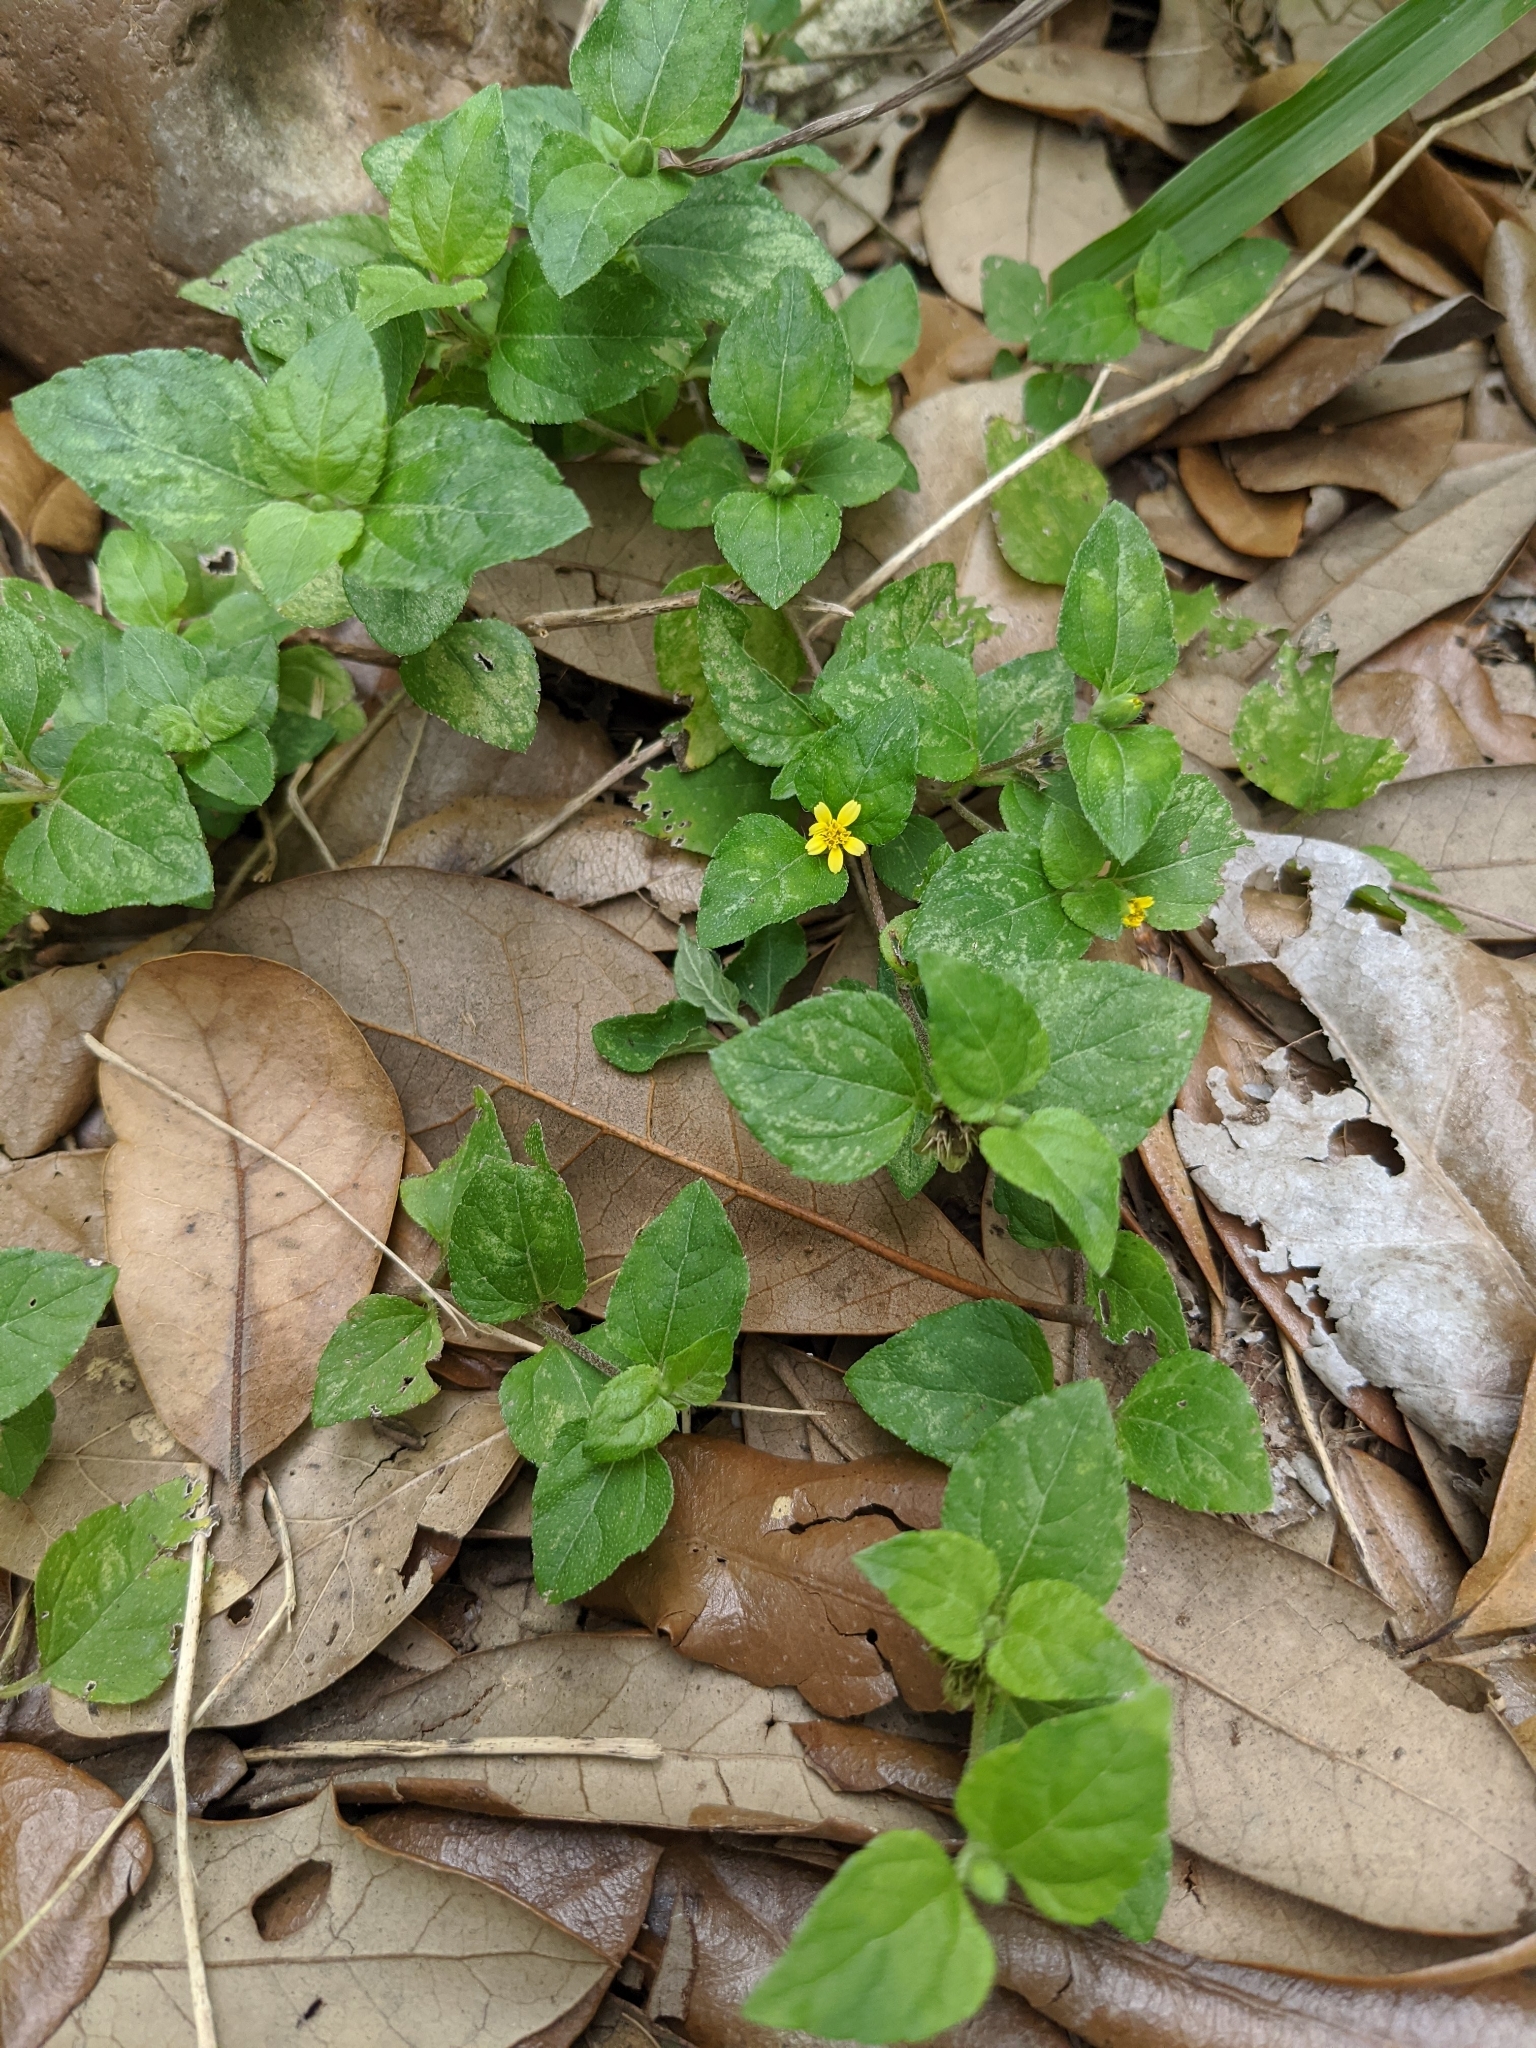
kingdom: Plantae
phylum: Tracheophyta
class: Magnoliopsida
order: Asterales
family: Asteraceae
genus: Calyptocarpus
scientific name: Calyptocarpus vialis
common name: Straggler daisy
